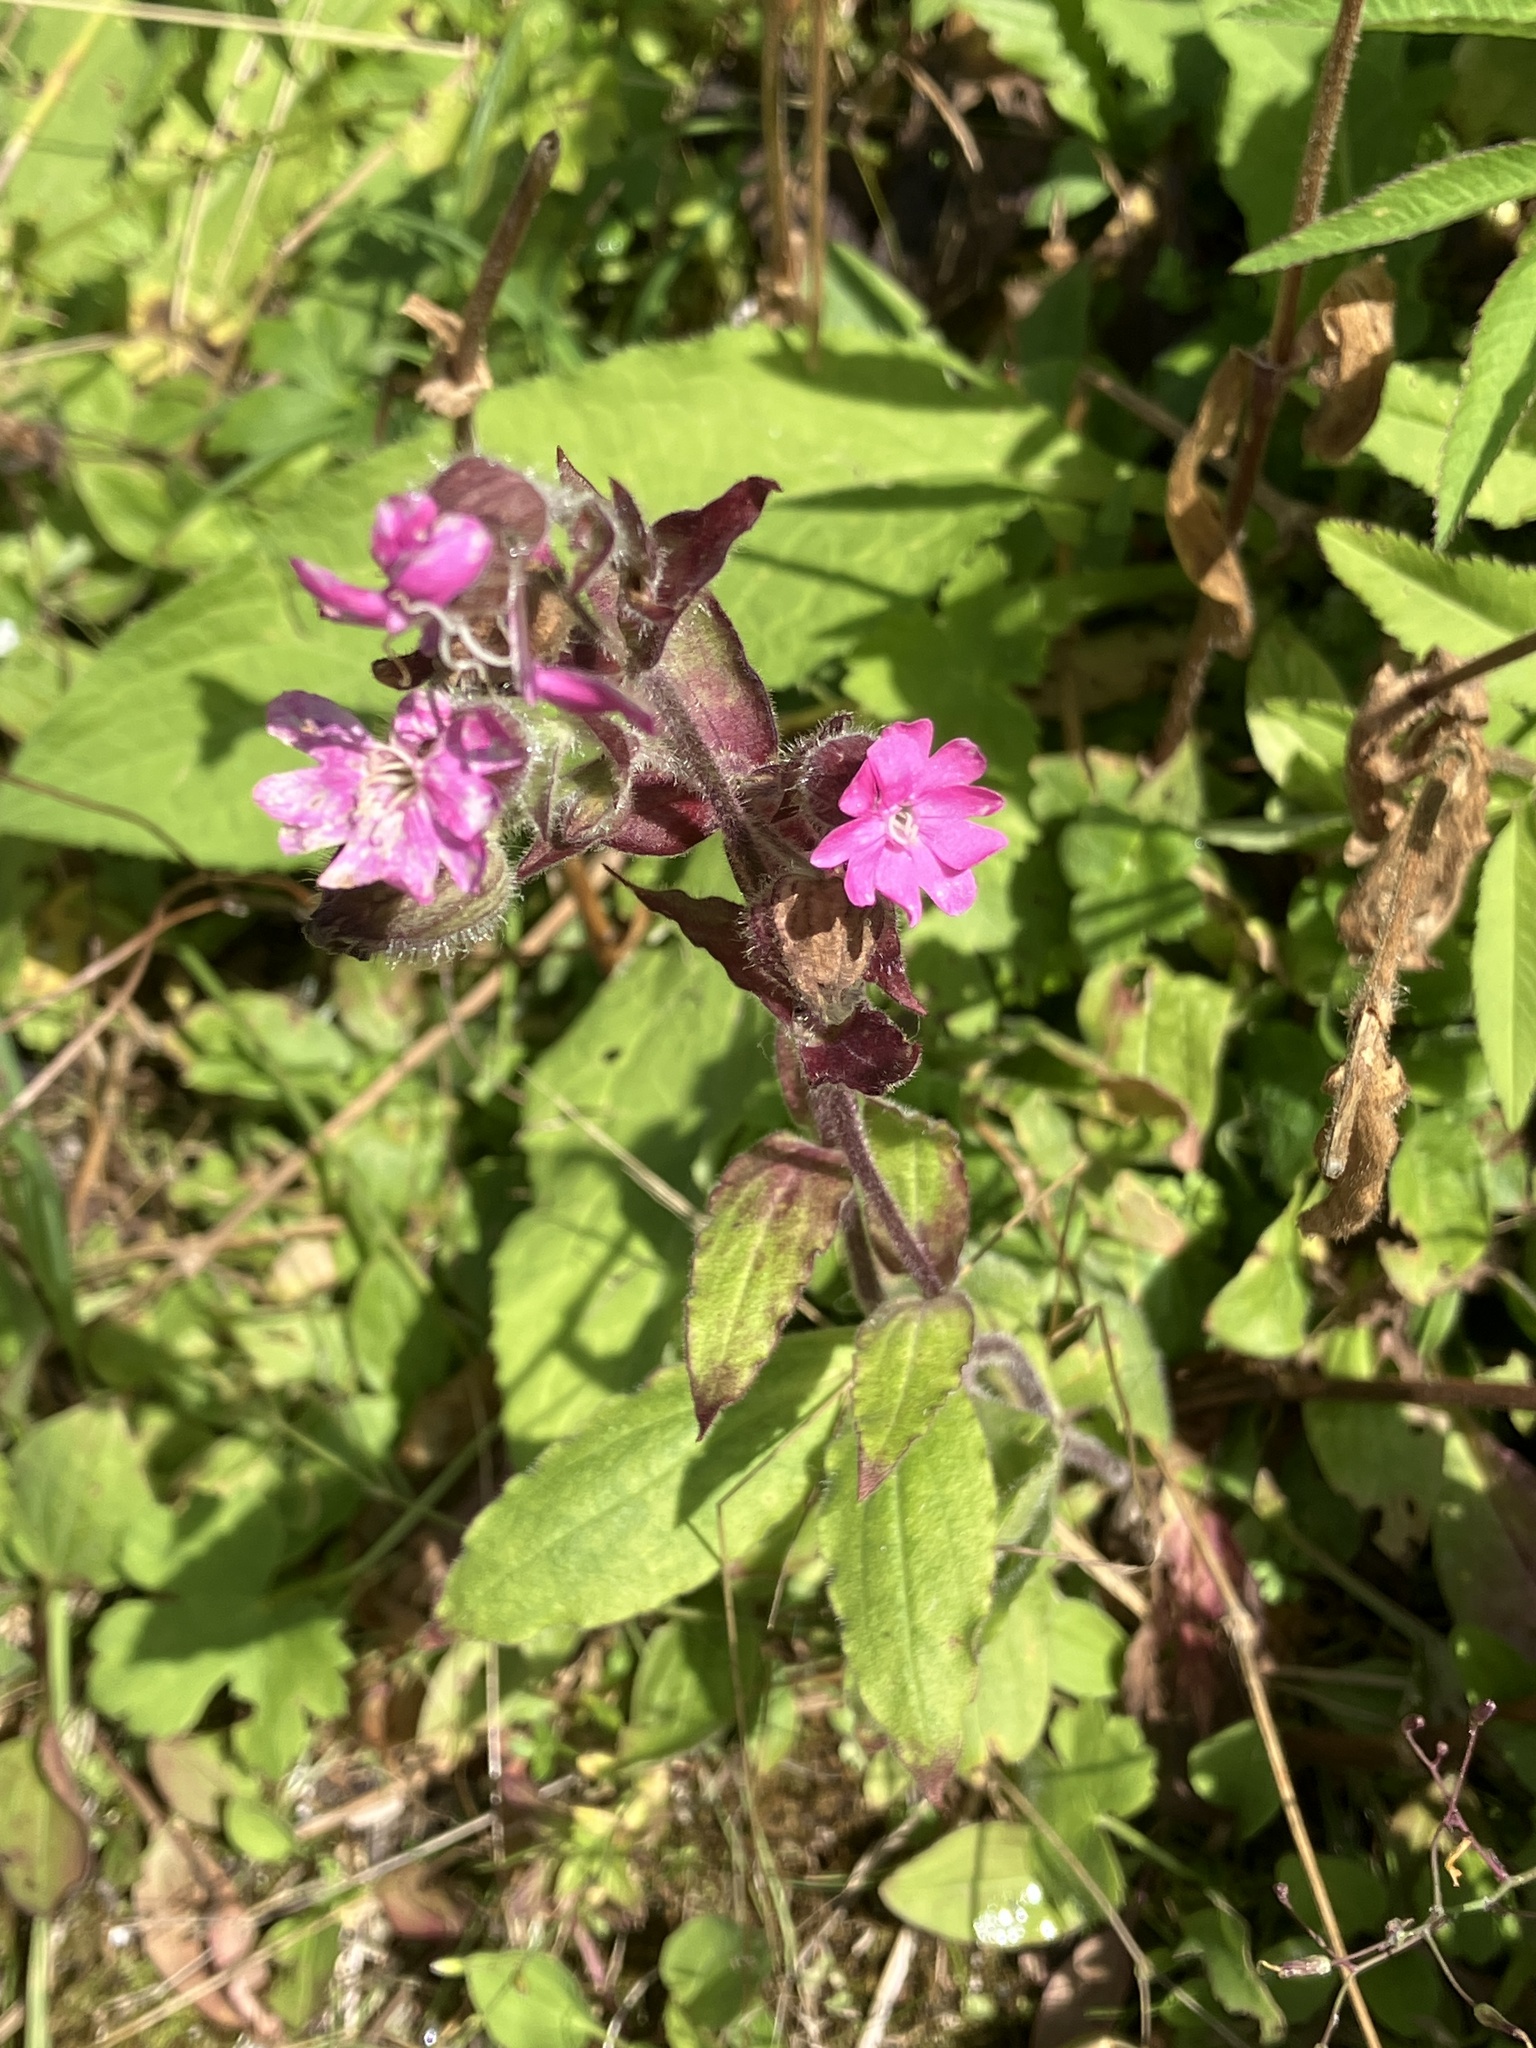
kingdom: Plantae
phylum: Tracheophyta
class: Magnoliopsida
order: Caryophyllales
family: Caryophyllaceae
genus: Silene
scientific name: Silene dioica
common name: Red campion
